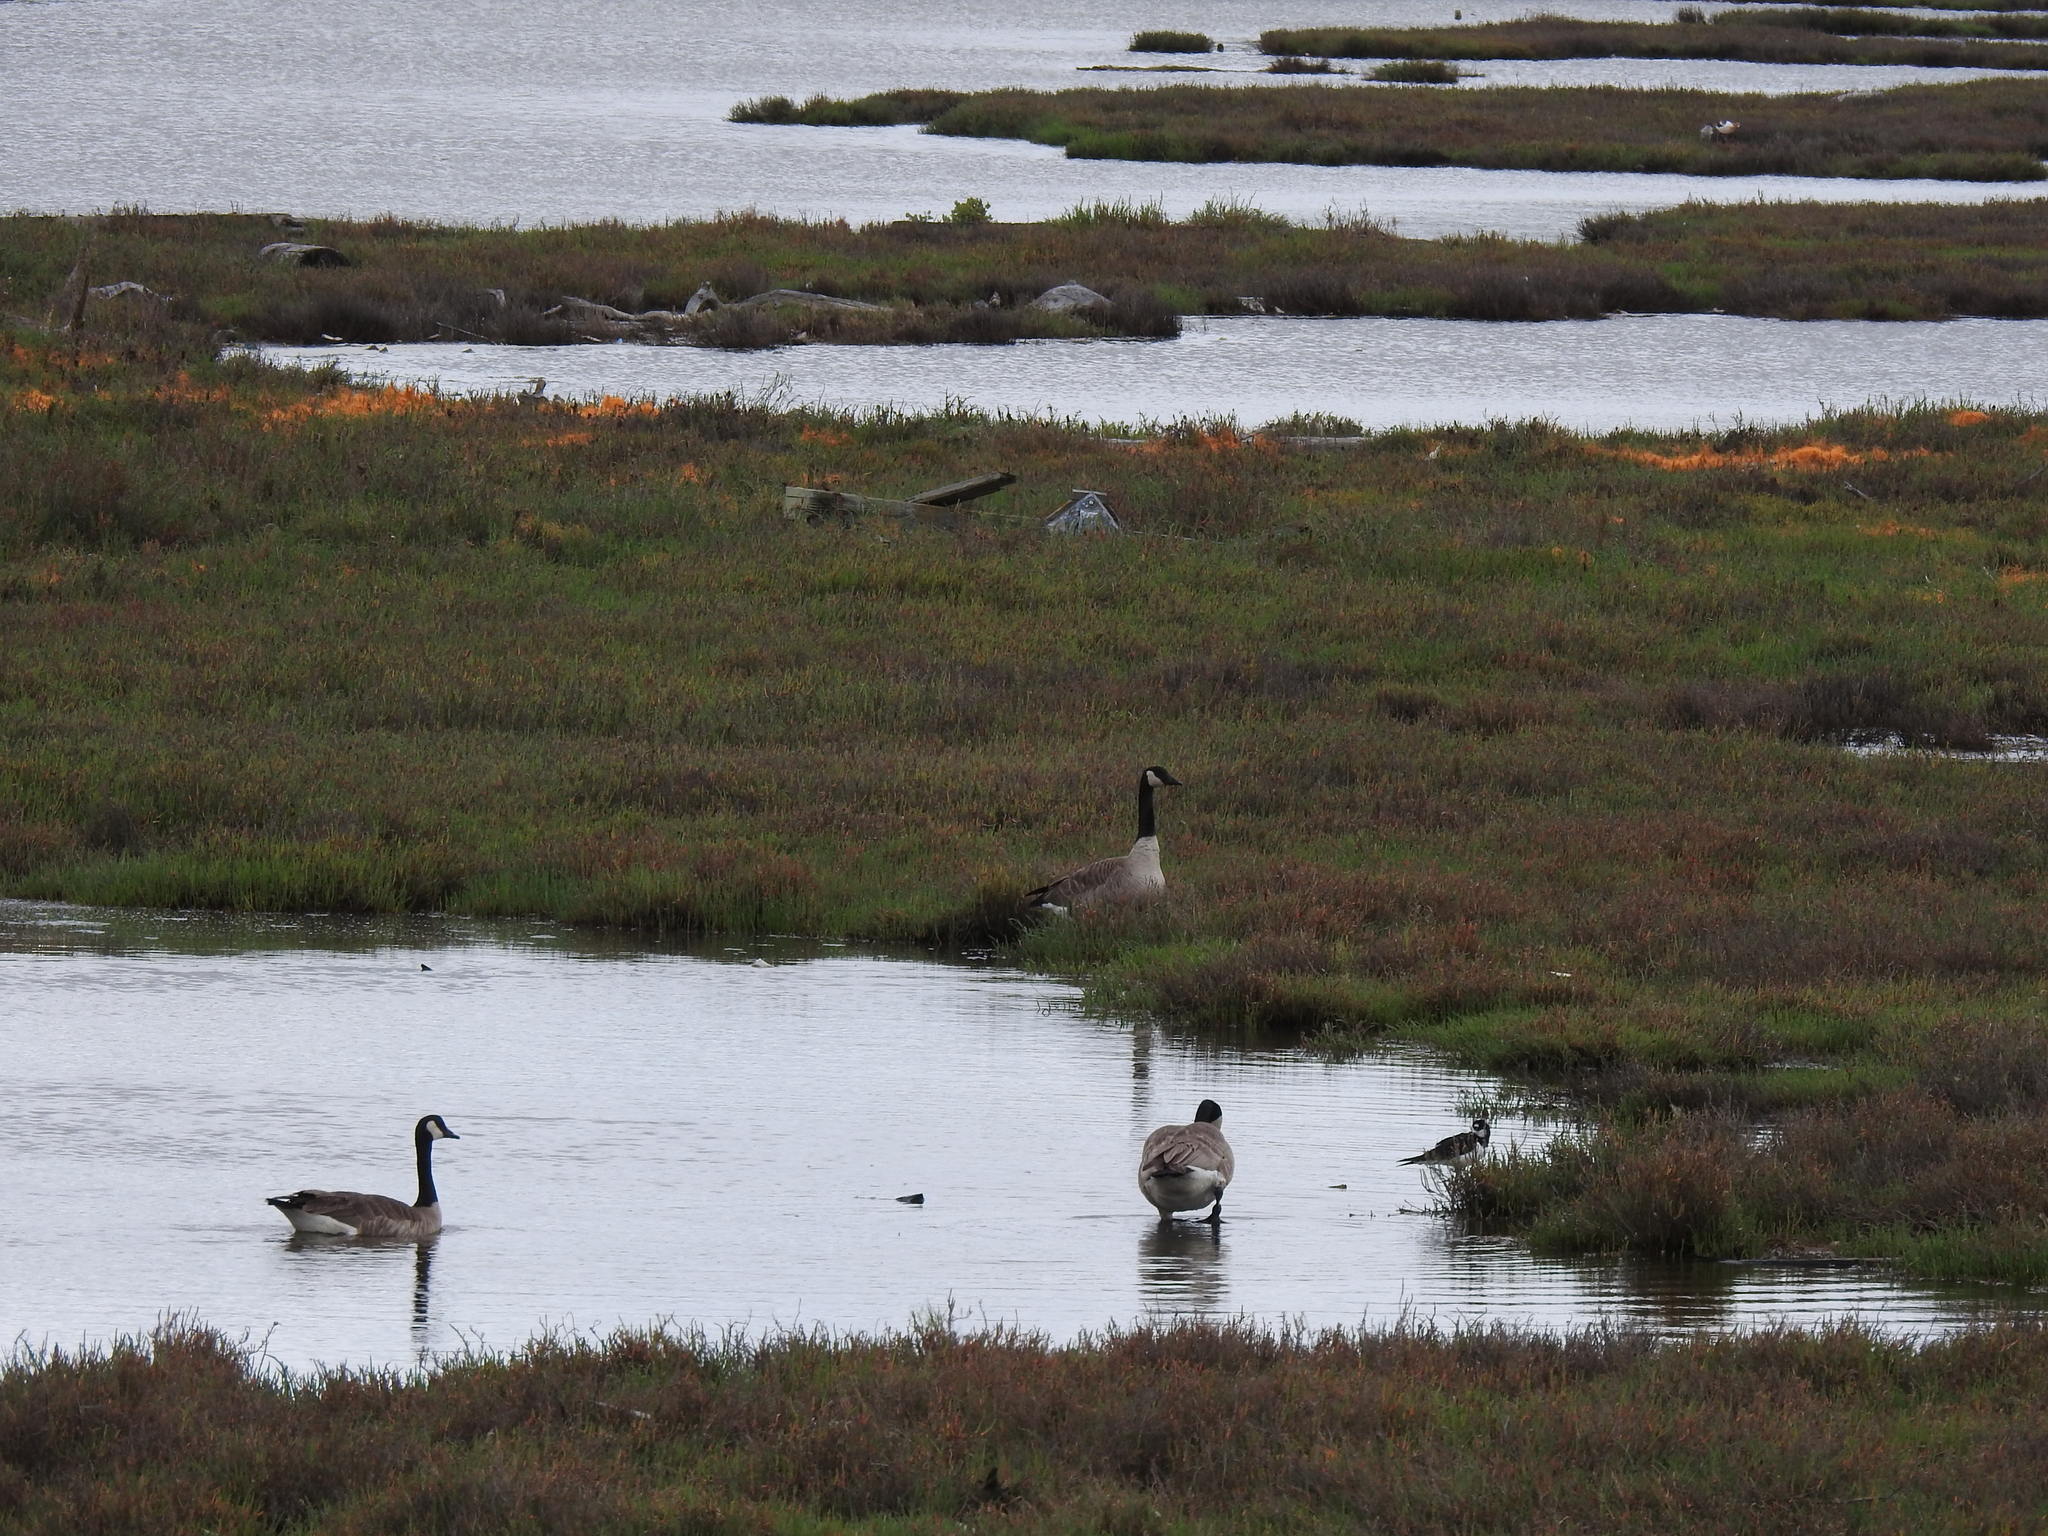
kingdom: Animalia
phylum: Chordata
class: Aves
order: Anseriformes
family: Anatidae
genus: Branta
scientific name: Branta canadensis
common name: Canada goose
